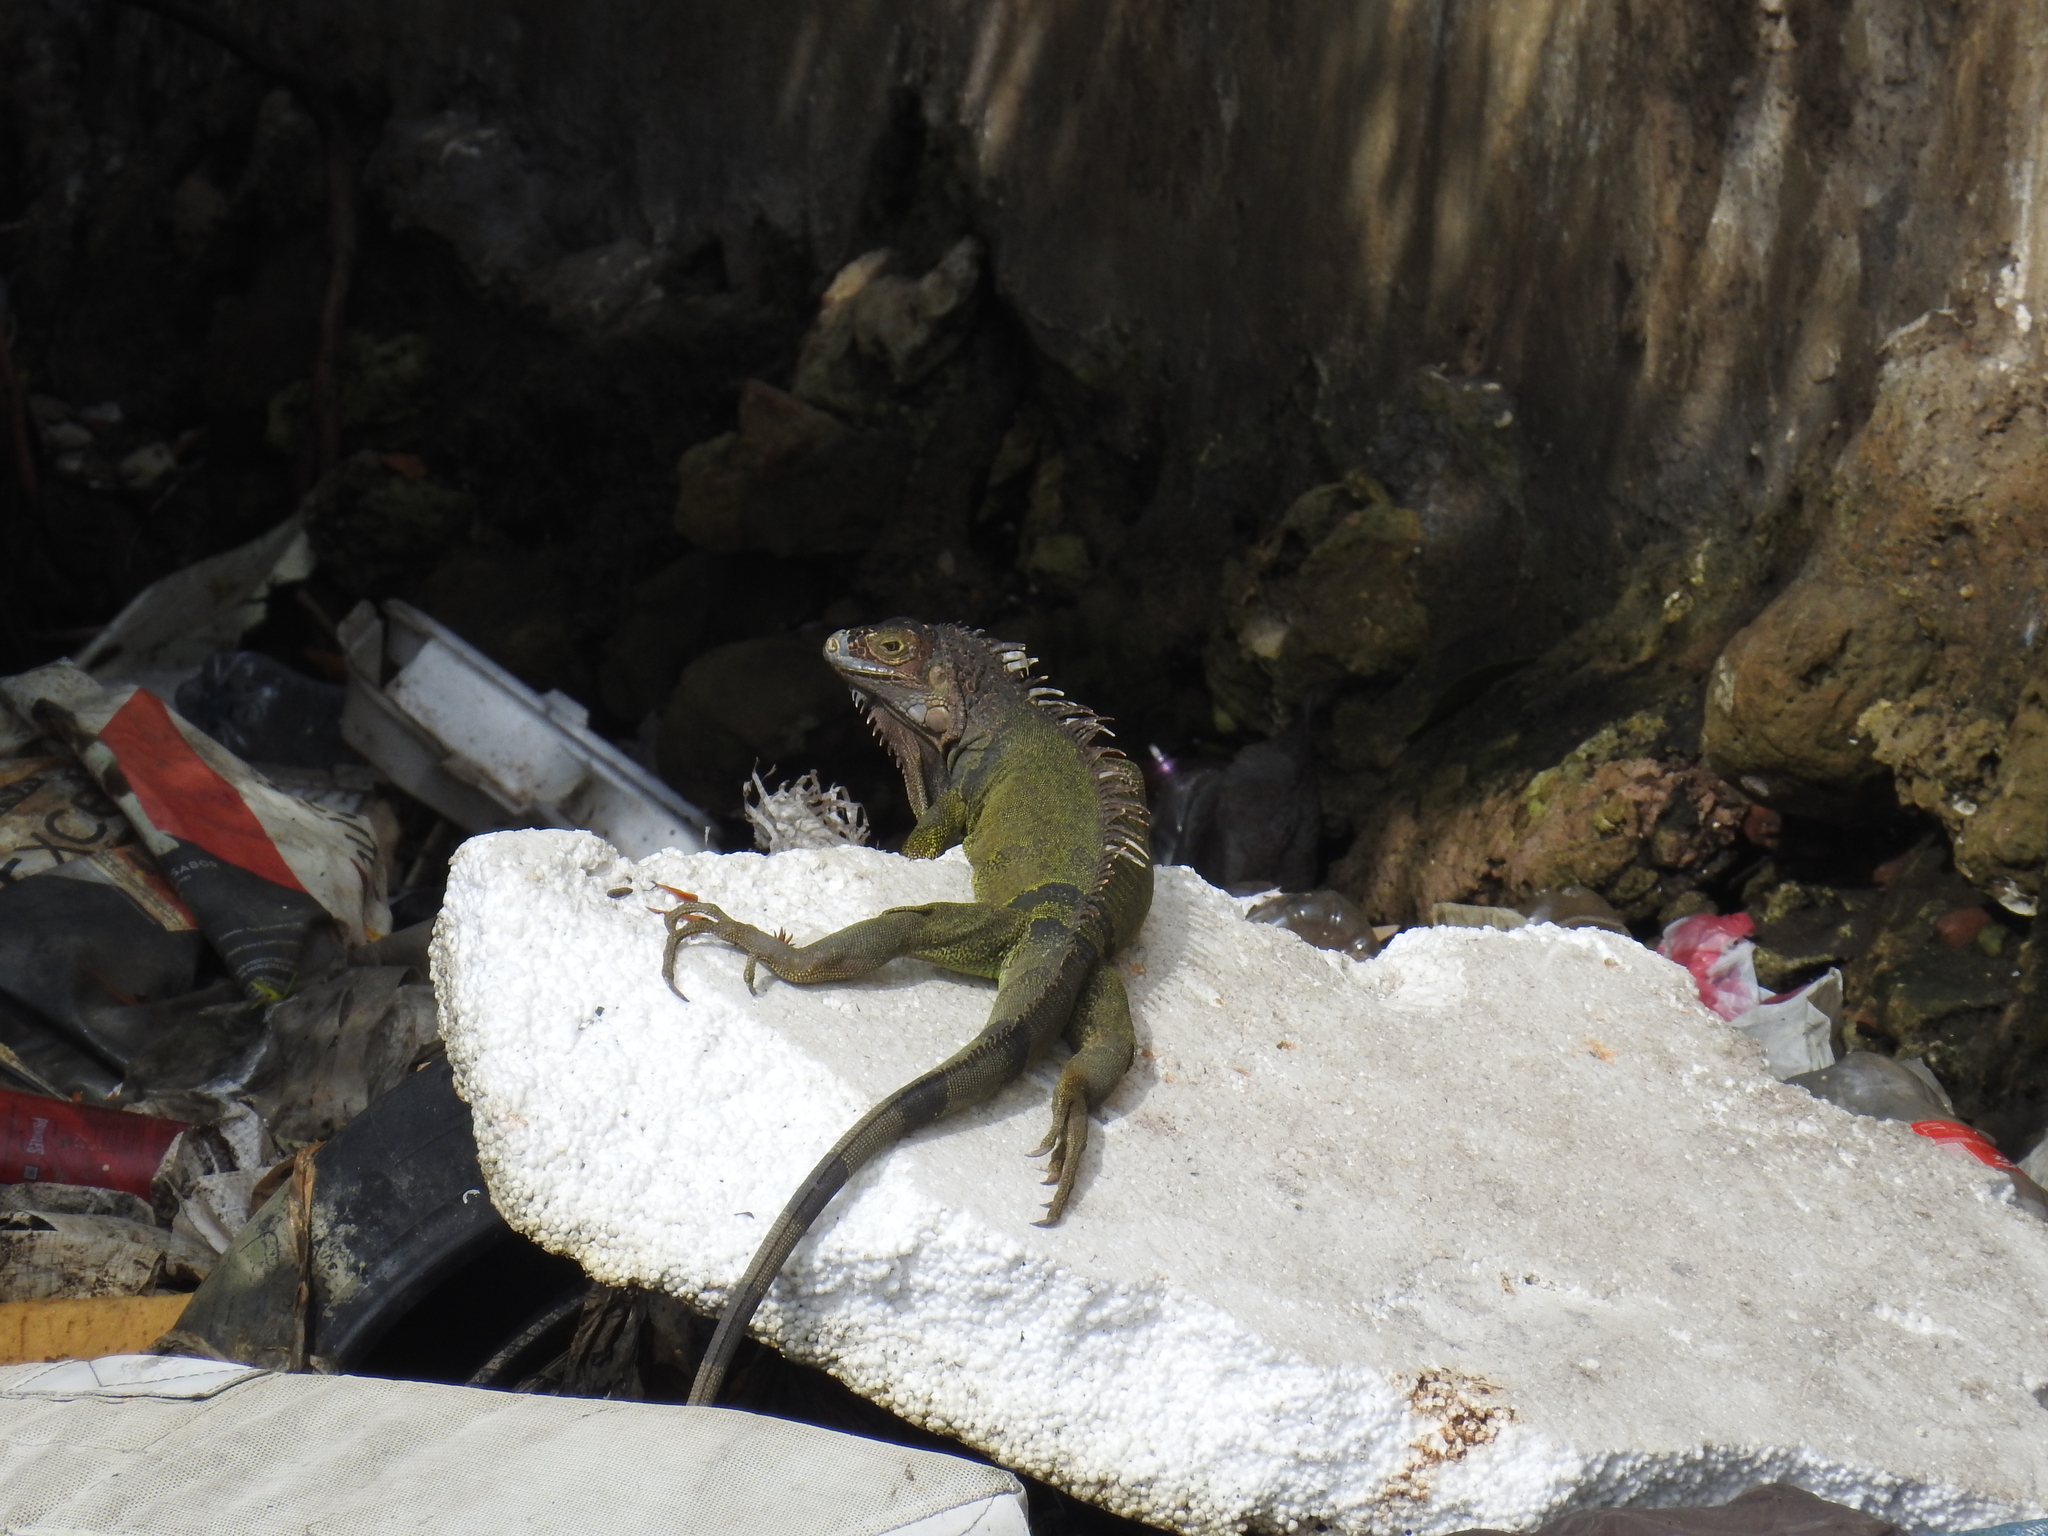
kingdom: Animalia
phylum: Chordata
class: Squamata
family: Iguanidae
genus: Iguana
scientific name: Iguana iguana
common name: Green iguana
